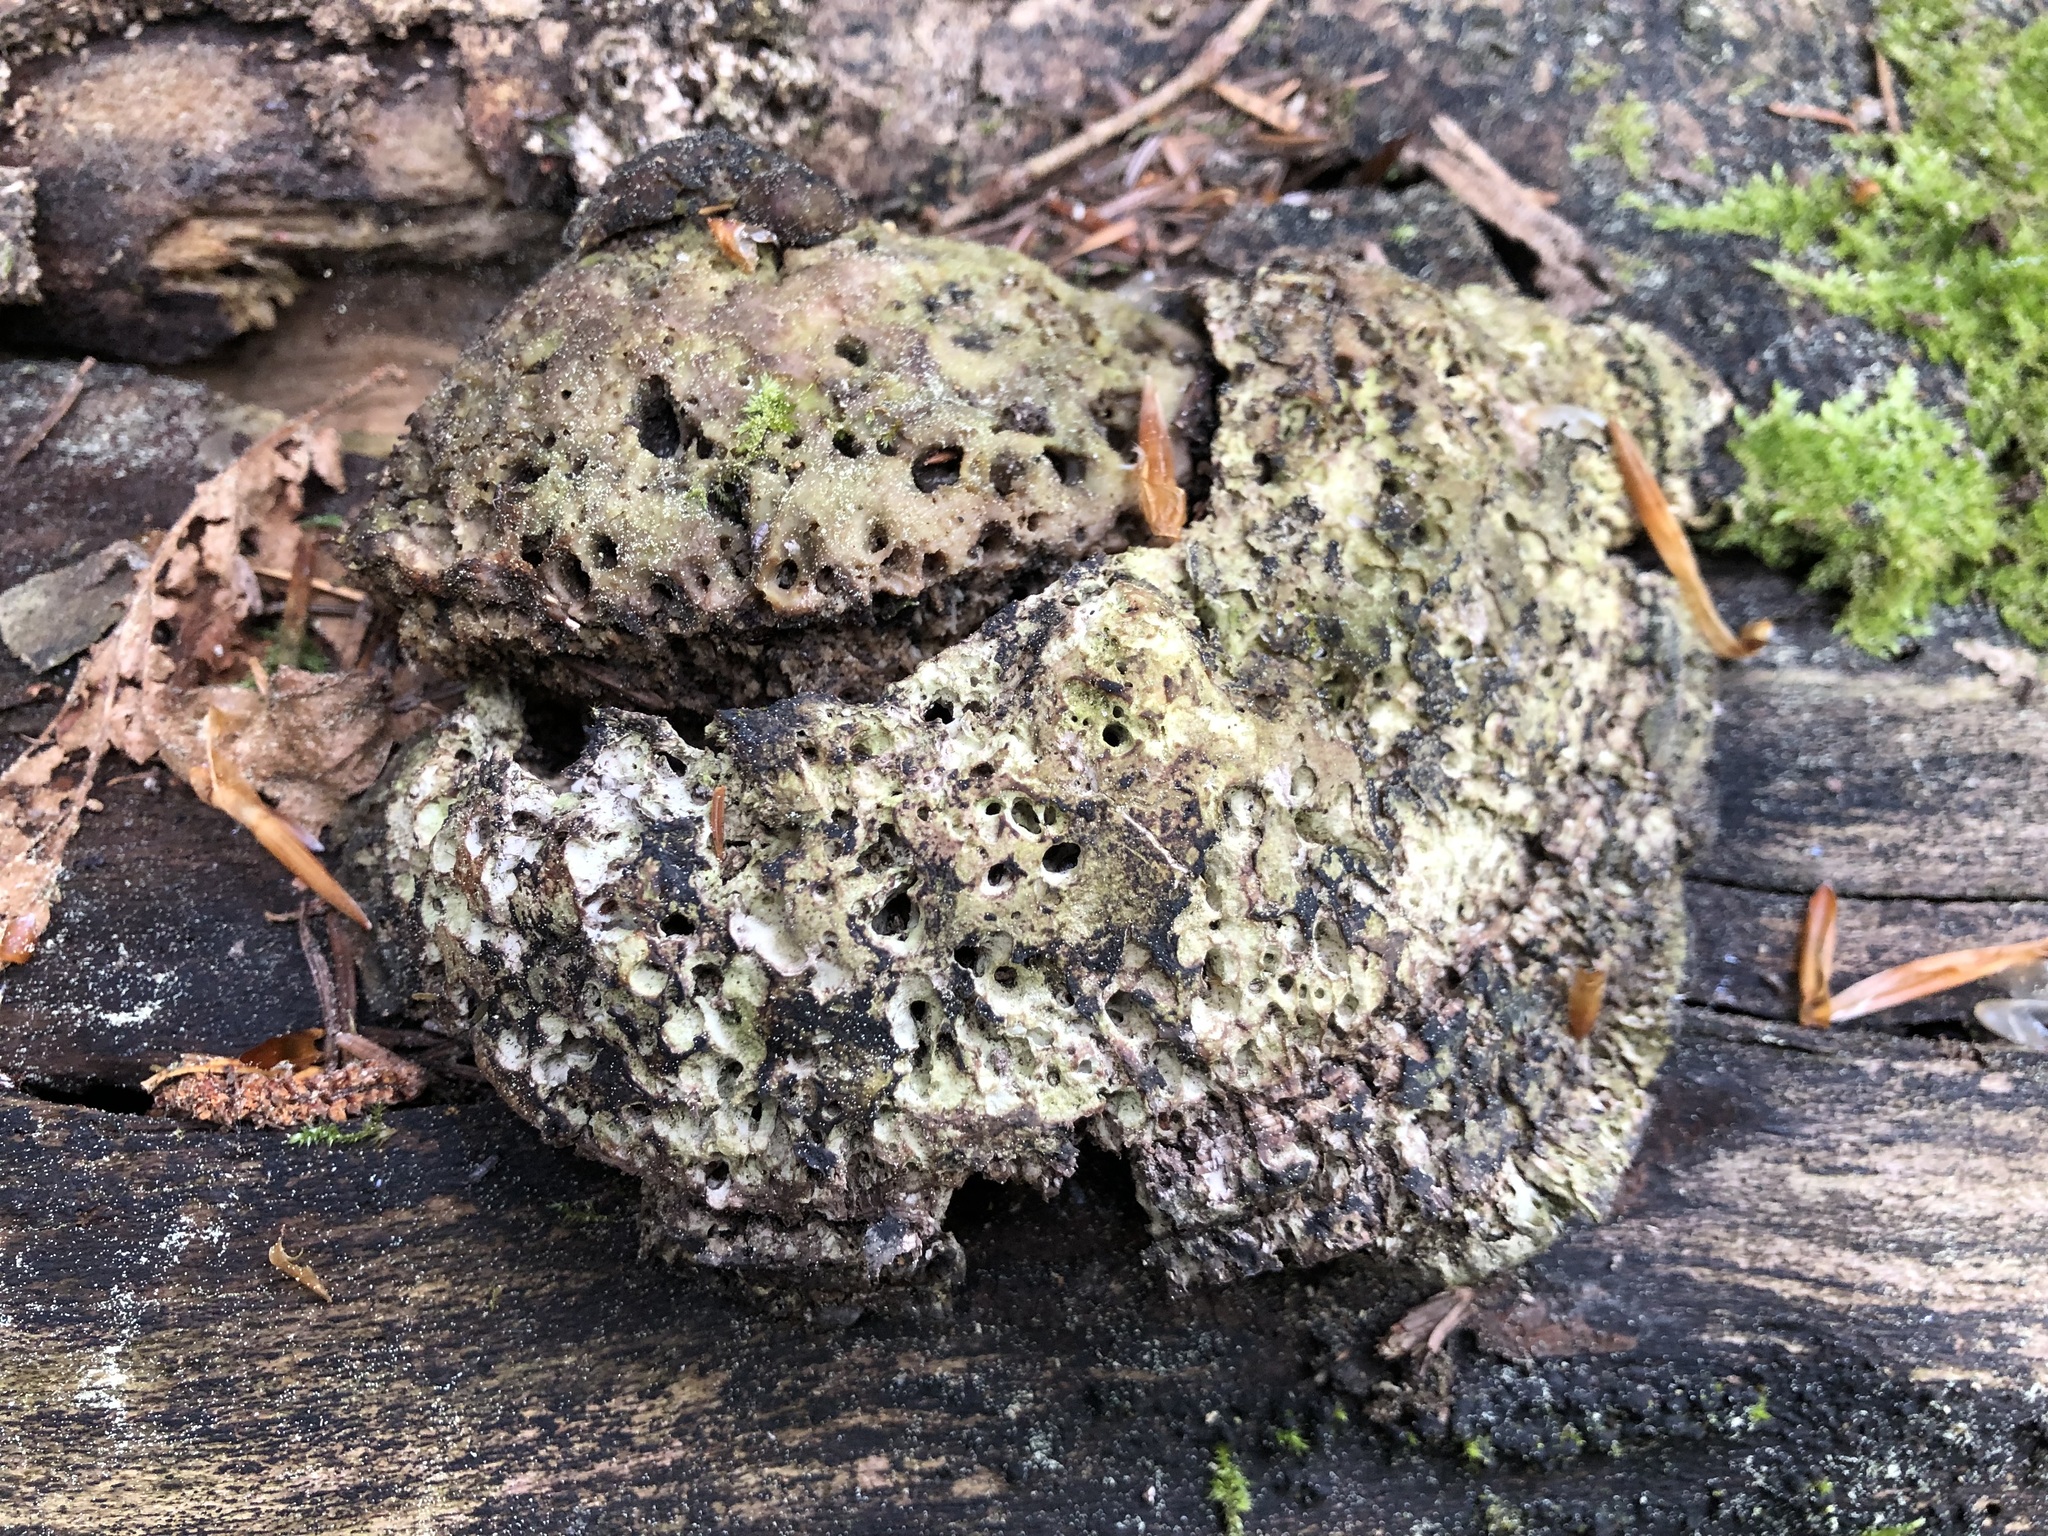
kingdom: Fungi
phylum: Basidiomycota
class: Agaricomycetes
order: Polyporales
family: Polyporaceae
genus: Trametes
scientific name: Trametes gibbosa
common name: Lumpy bracket
